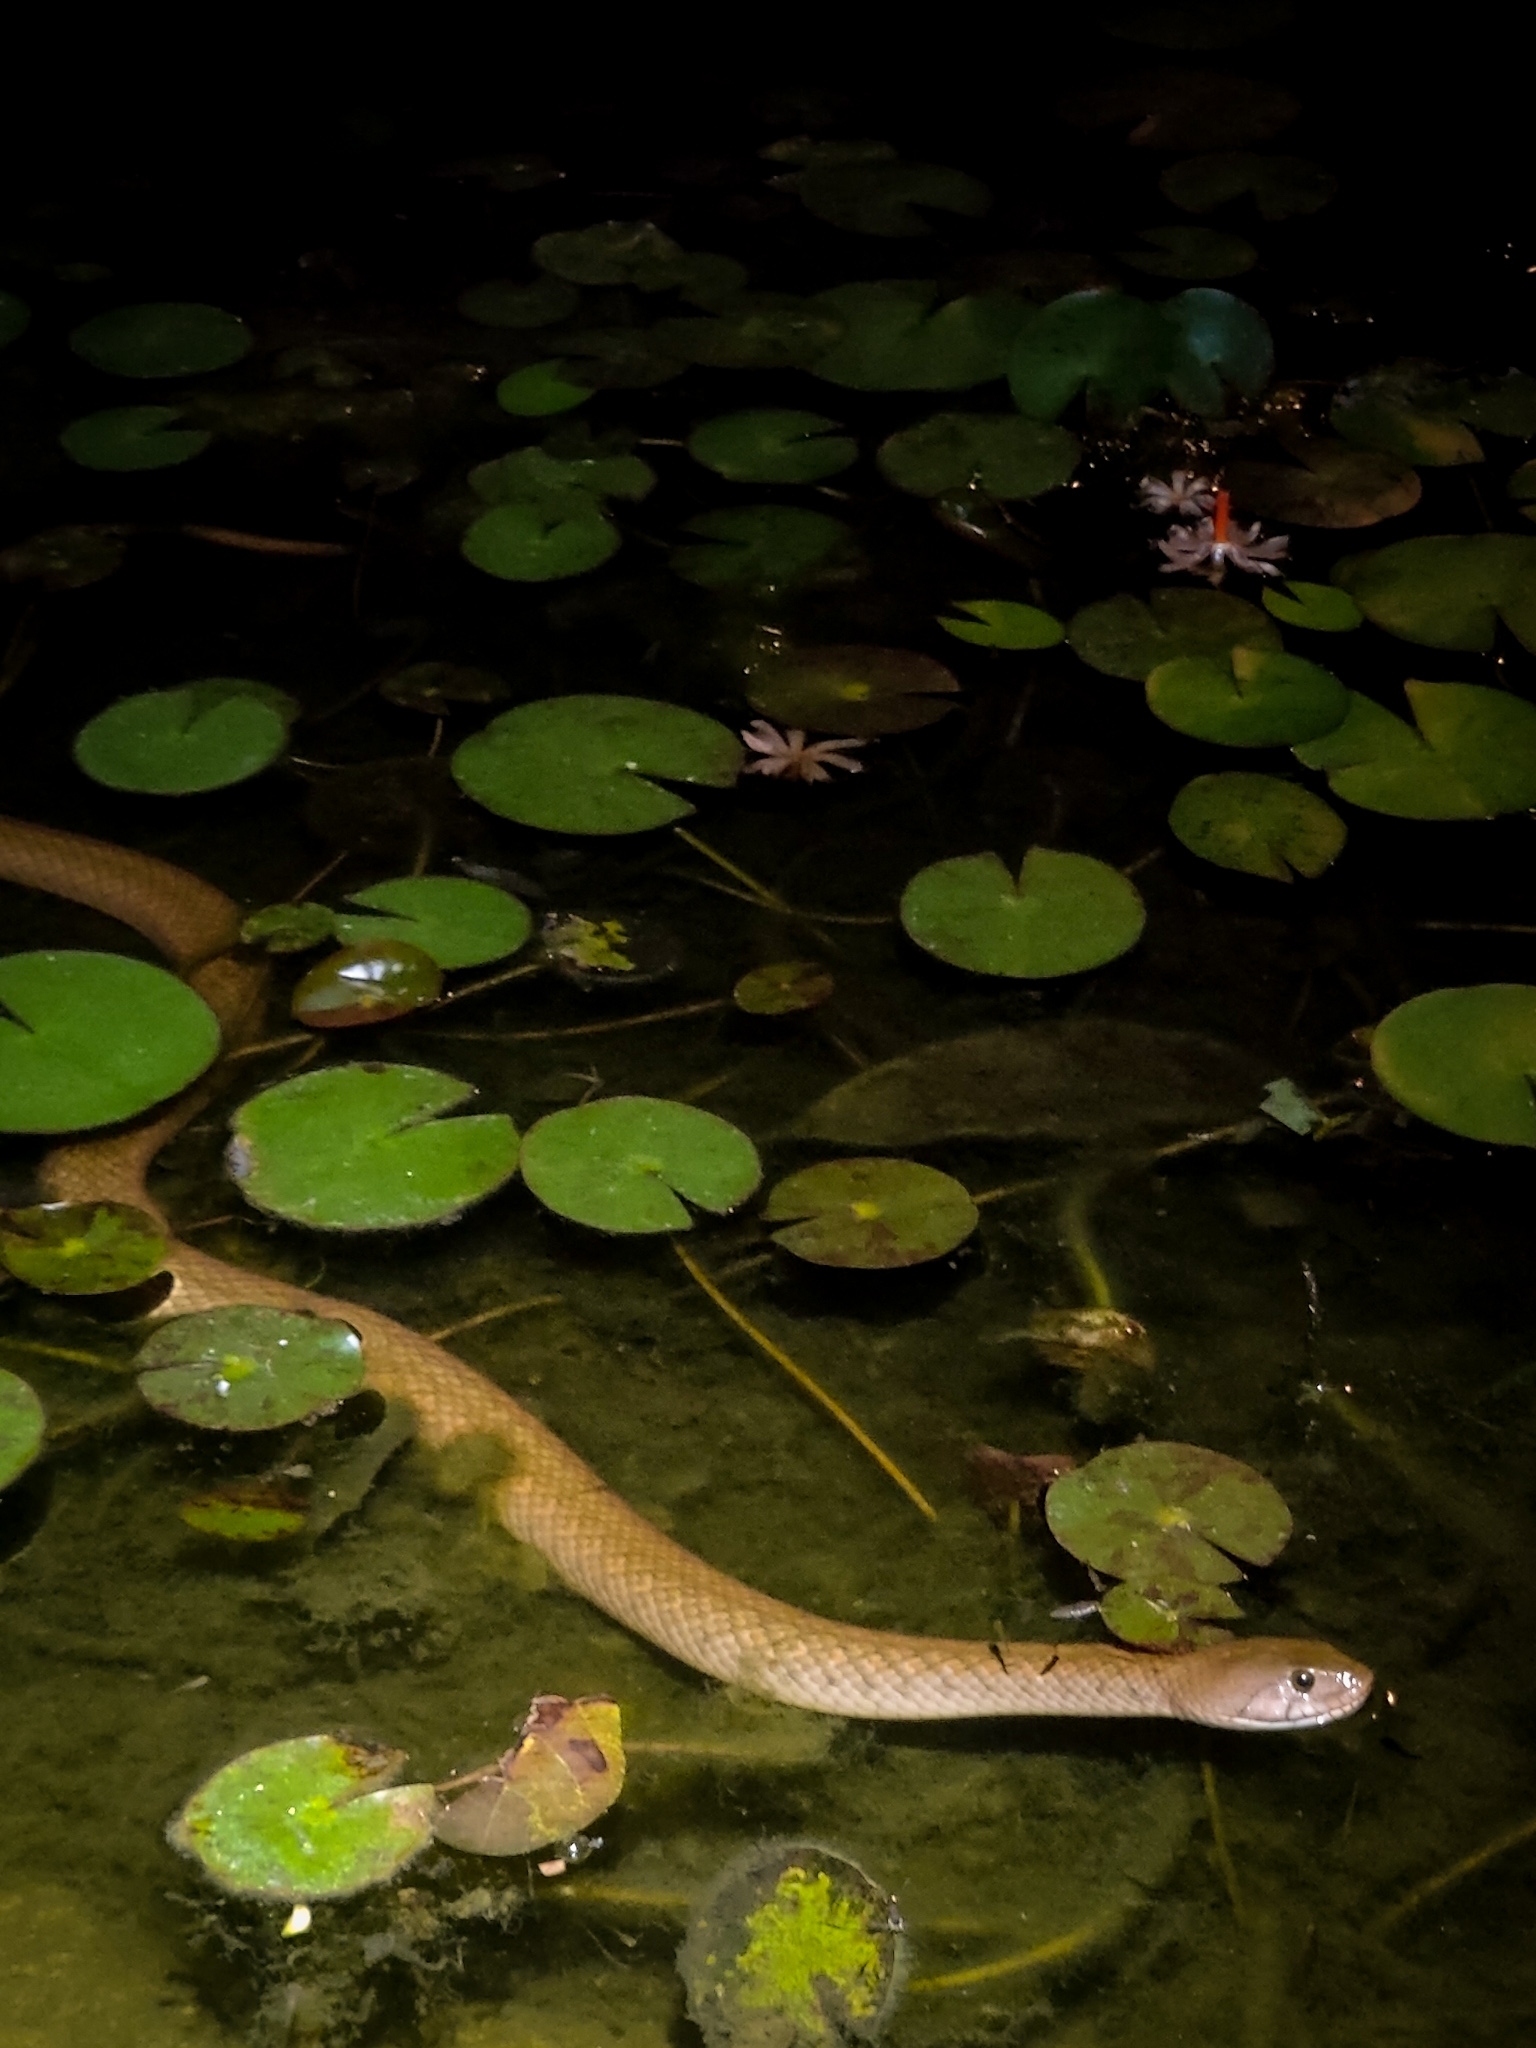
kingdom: Animalia
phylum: Chordata
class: Squamata
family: Colubridae
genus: Fowlea
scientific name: Fowlea piscator
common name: Asiatic water snake
